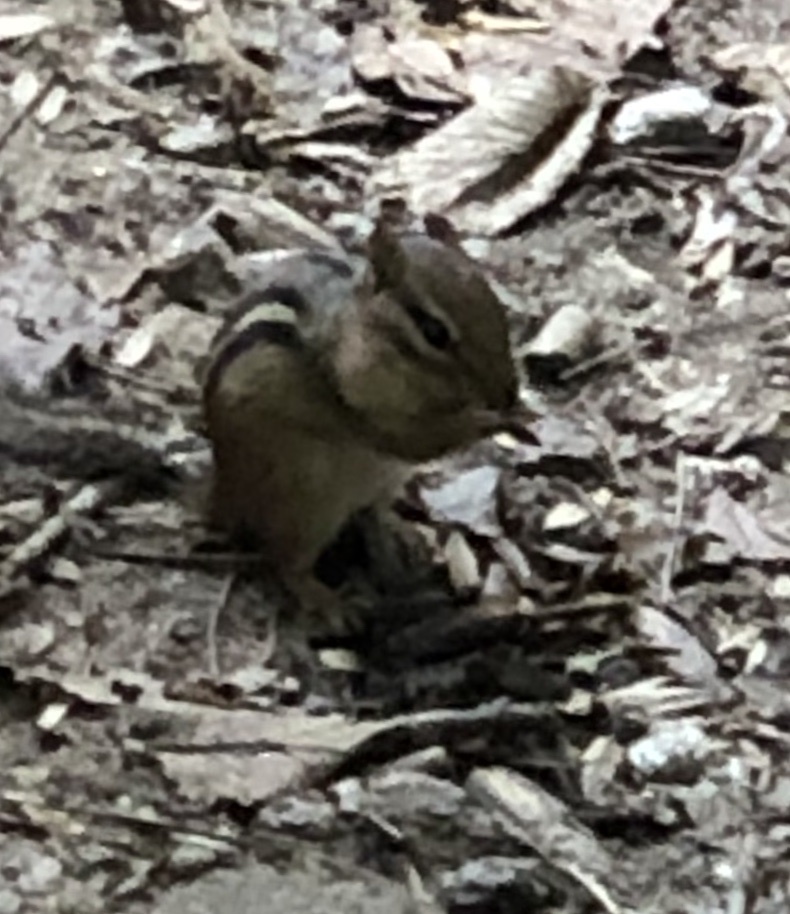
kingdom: Animalia
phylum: Chordata
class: Mammalia
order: Rodentia
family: Sciuridae
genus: Tamias
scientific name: Tamias striatus
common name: Eastern chipmunk
